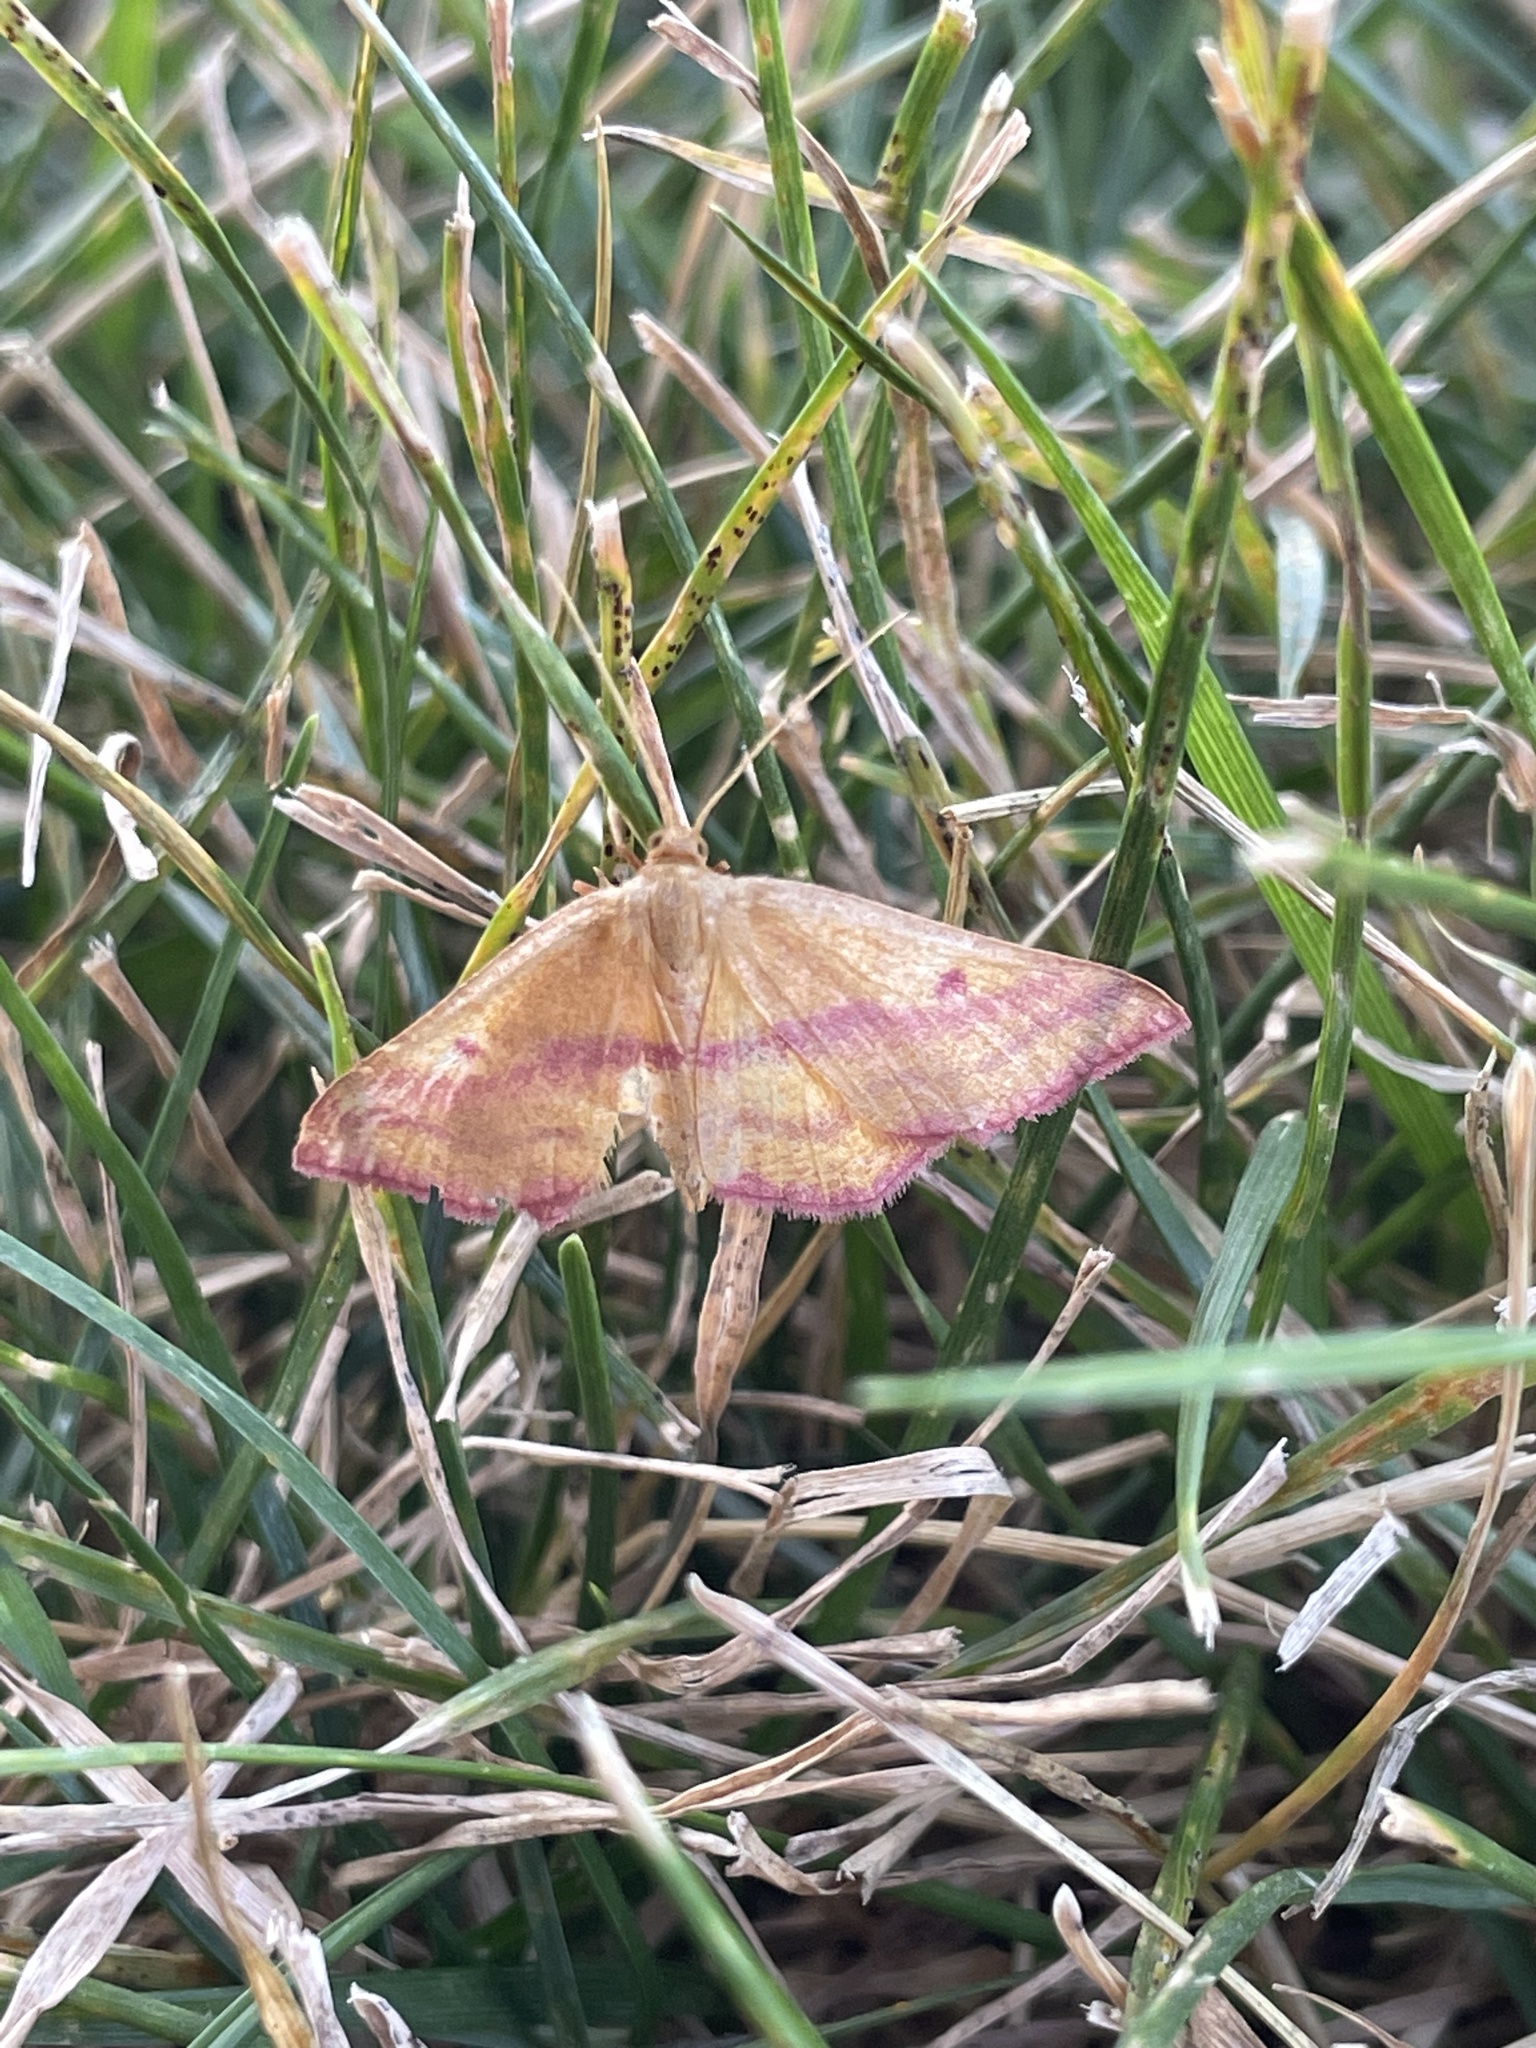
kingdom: Animalia
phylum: Arthropoda
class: Insecta
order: Lepidoptera
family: Geometridae
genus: Haematopis
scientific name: Haematopis grataria
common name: Chickweed geometer
